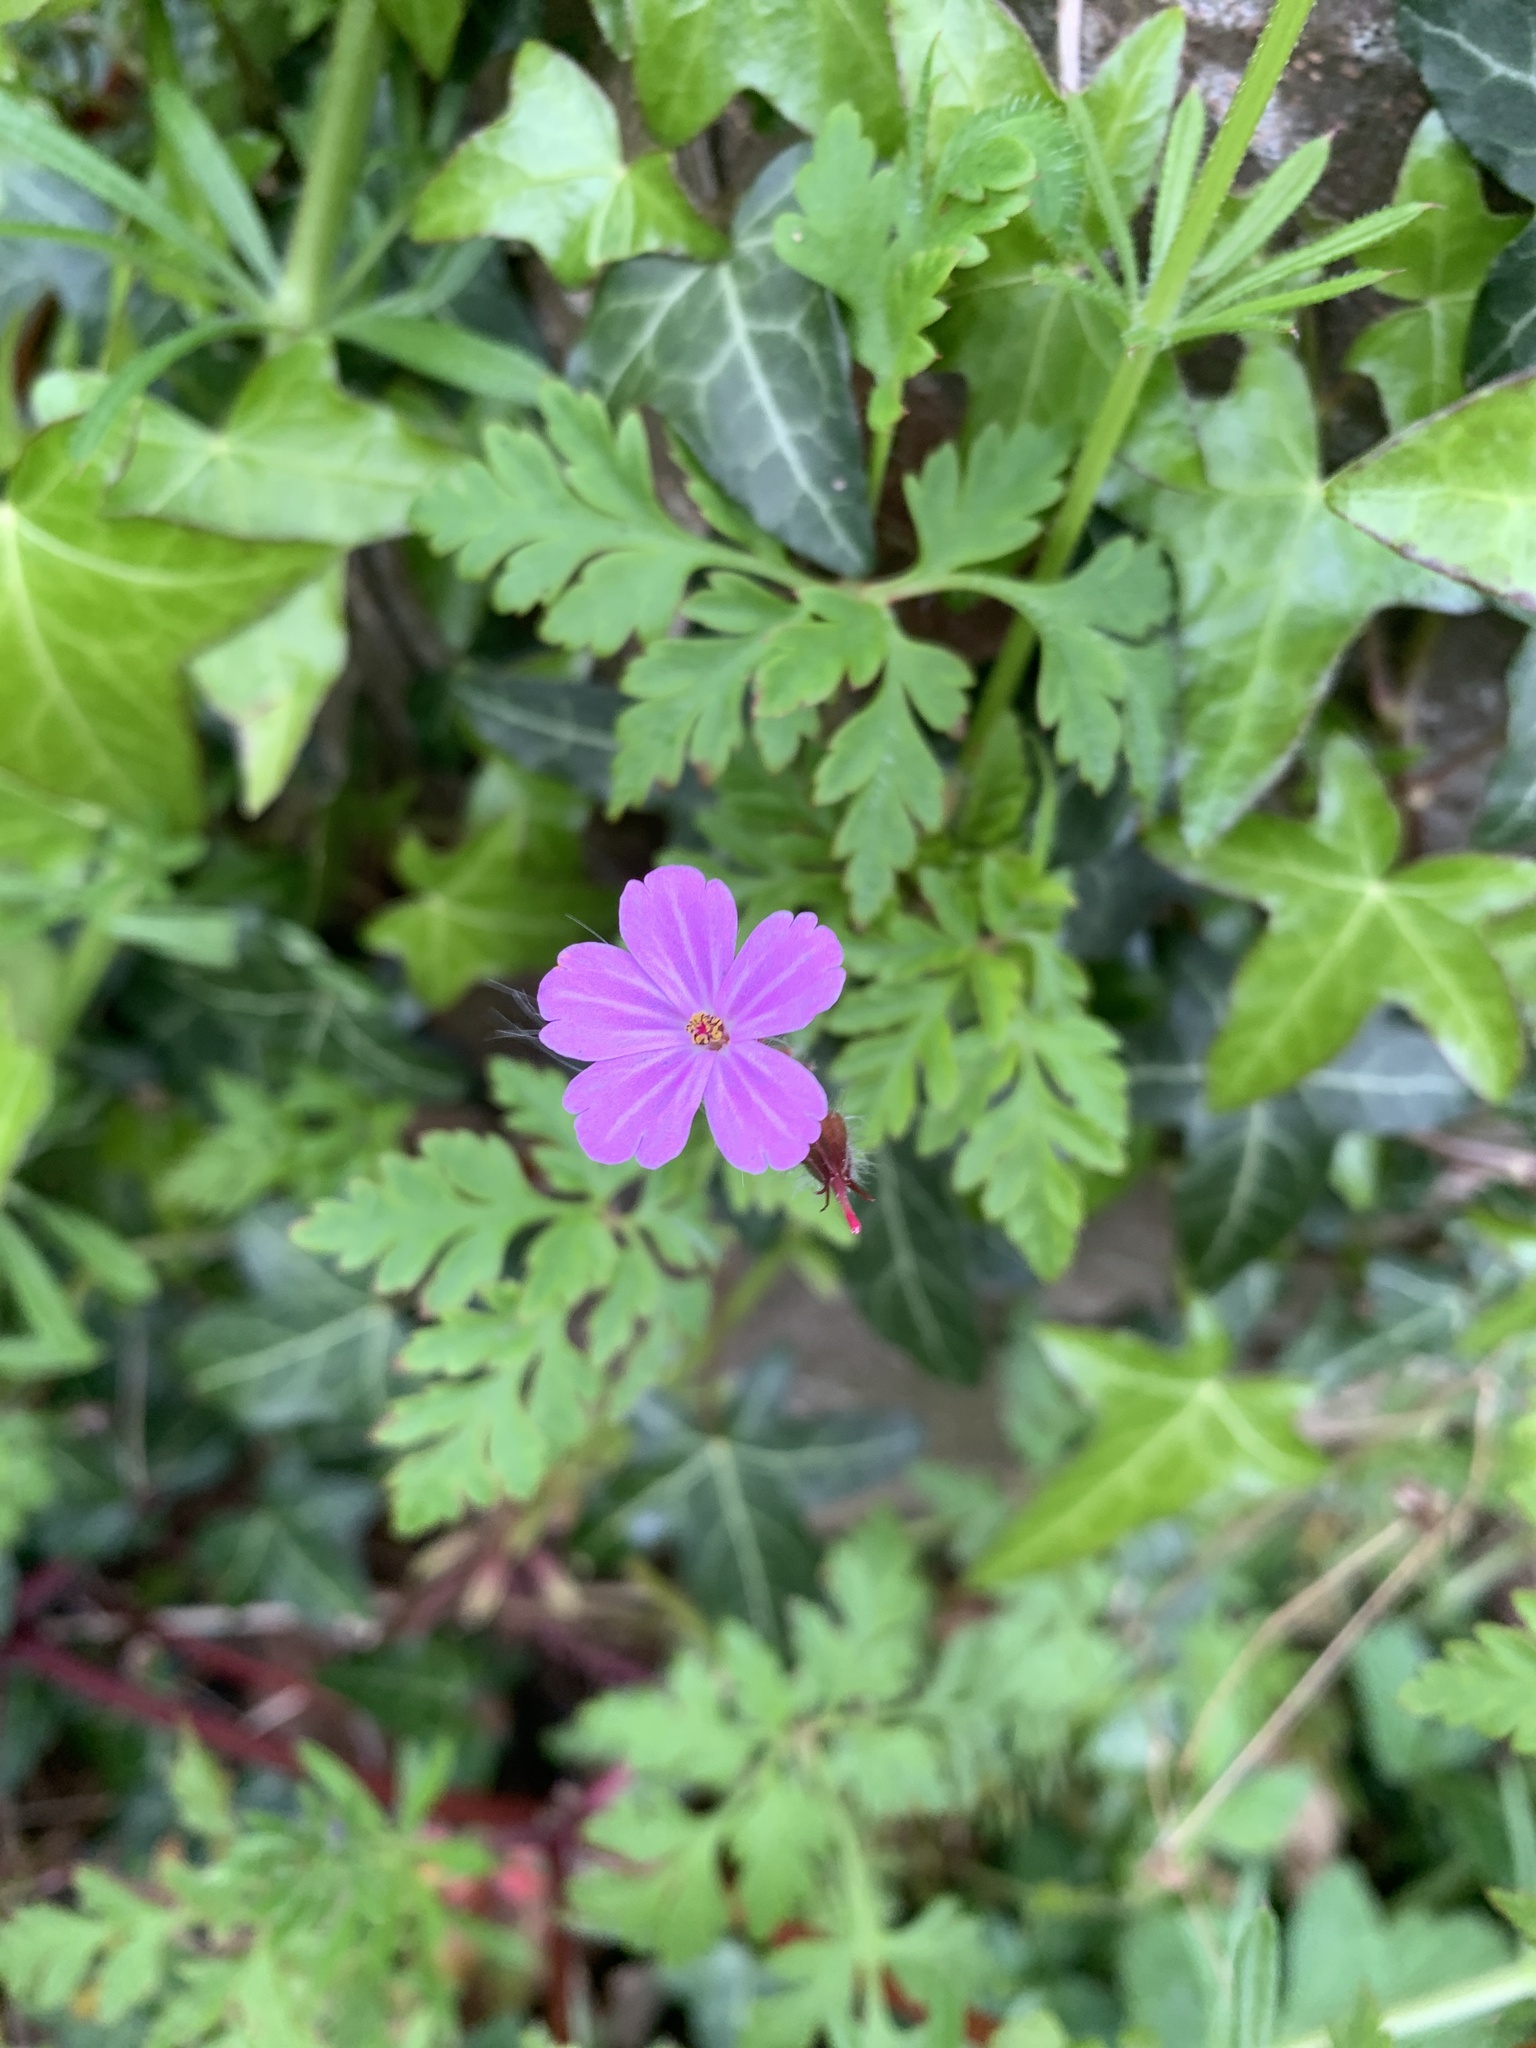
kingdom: Plantae
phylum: Tracheophyta
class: Magnoliopsida
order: Geraniales
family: Geraniaceae
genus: Geranium
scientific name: Geranium robertianum
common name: Herb-robert
